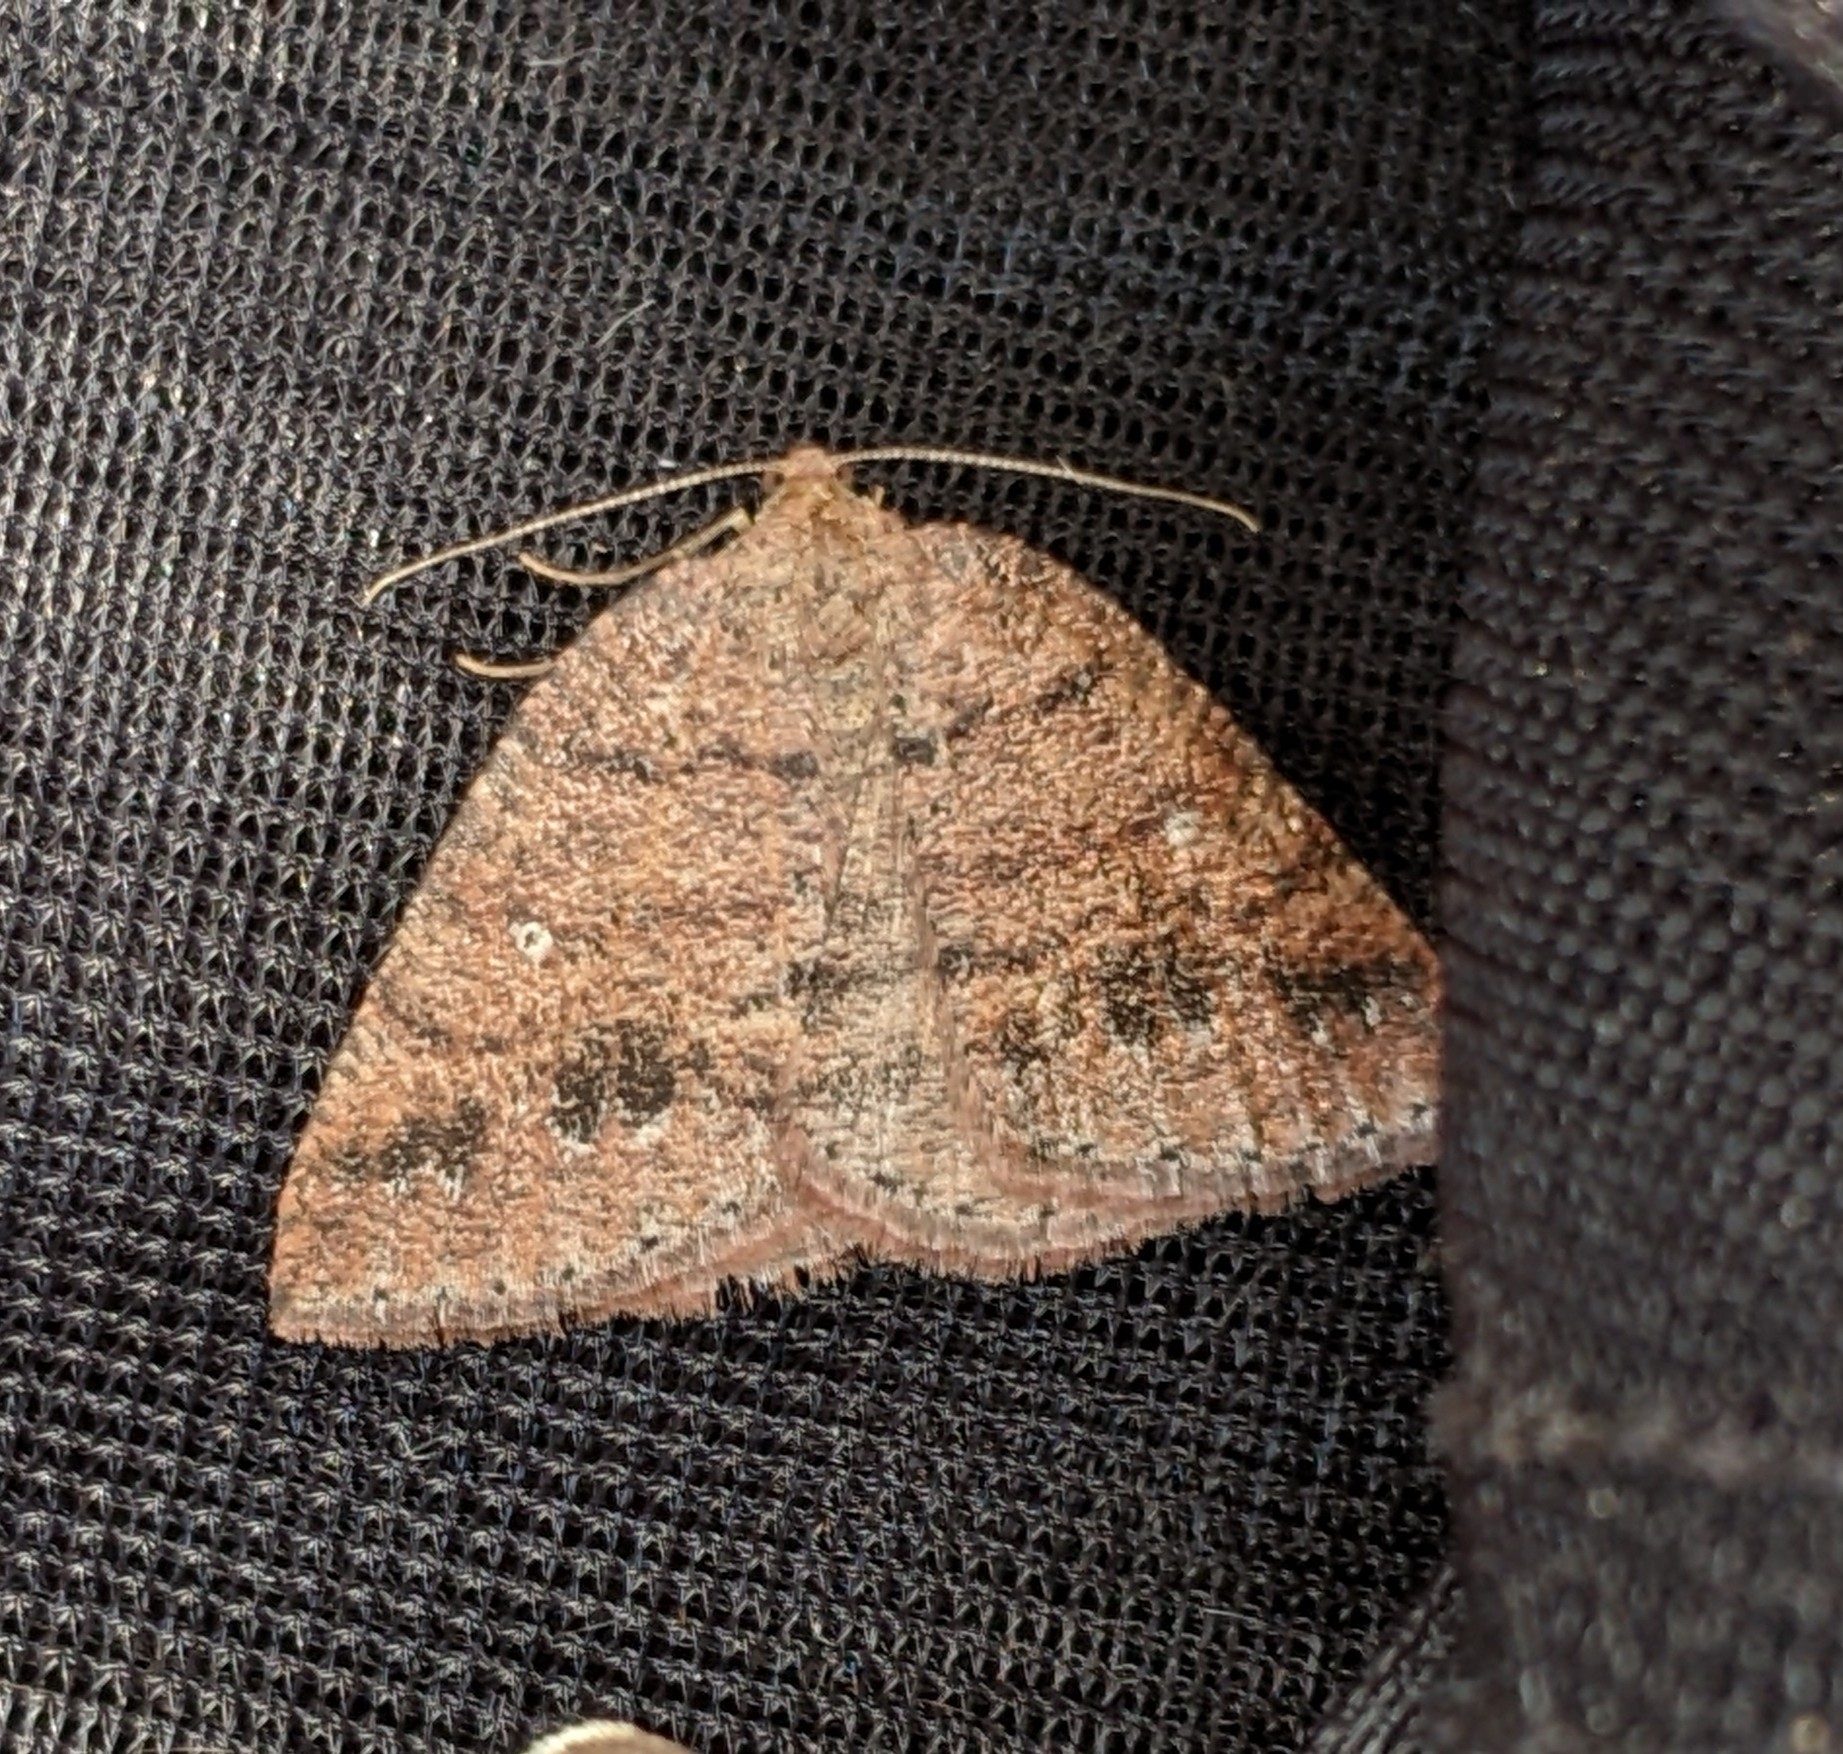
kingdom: Animalia
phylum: Arthropoda
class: Insecta
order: Lepidoptera
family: Geometridae
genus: Drepanulatrix
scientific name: Drepanulatrix faeminaria
